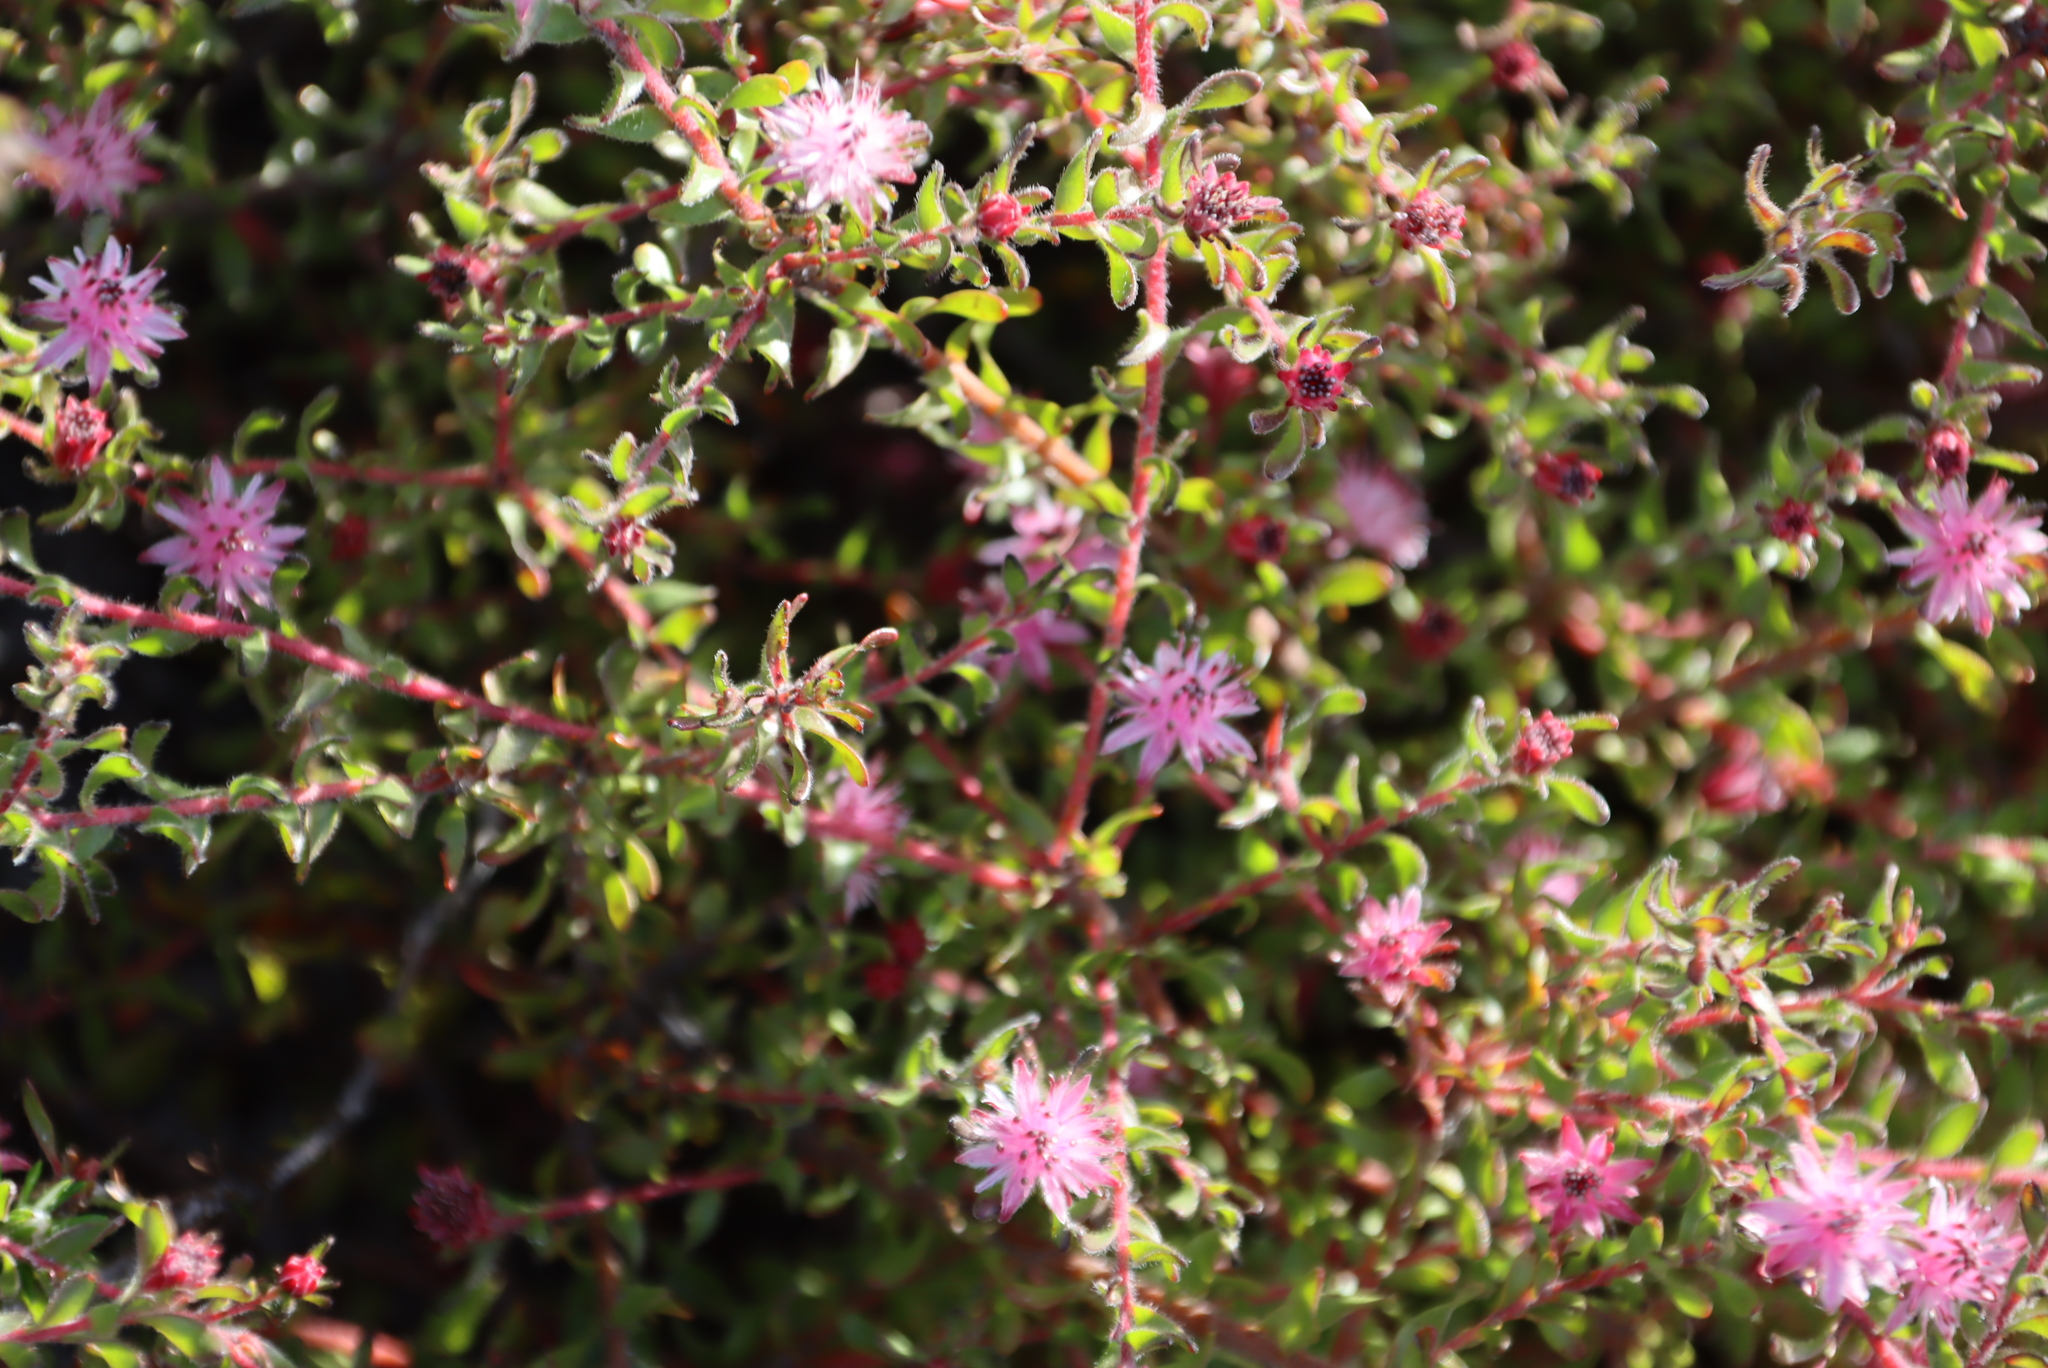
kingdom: Plantae
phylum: Tracheophyta
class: Magnoliopsida
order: Proteales
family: Proteaceae
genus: Diastella
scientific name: Diastella divaricata
